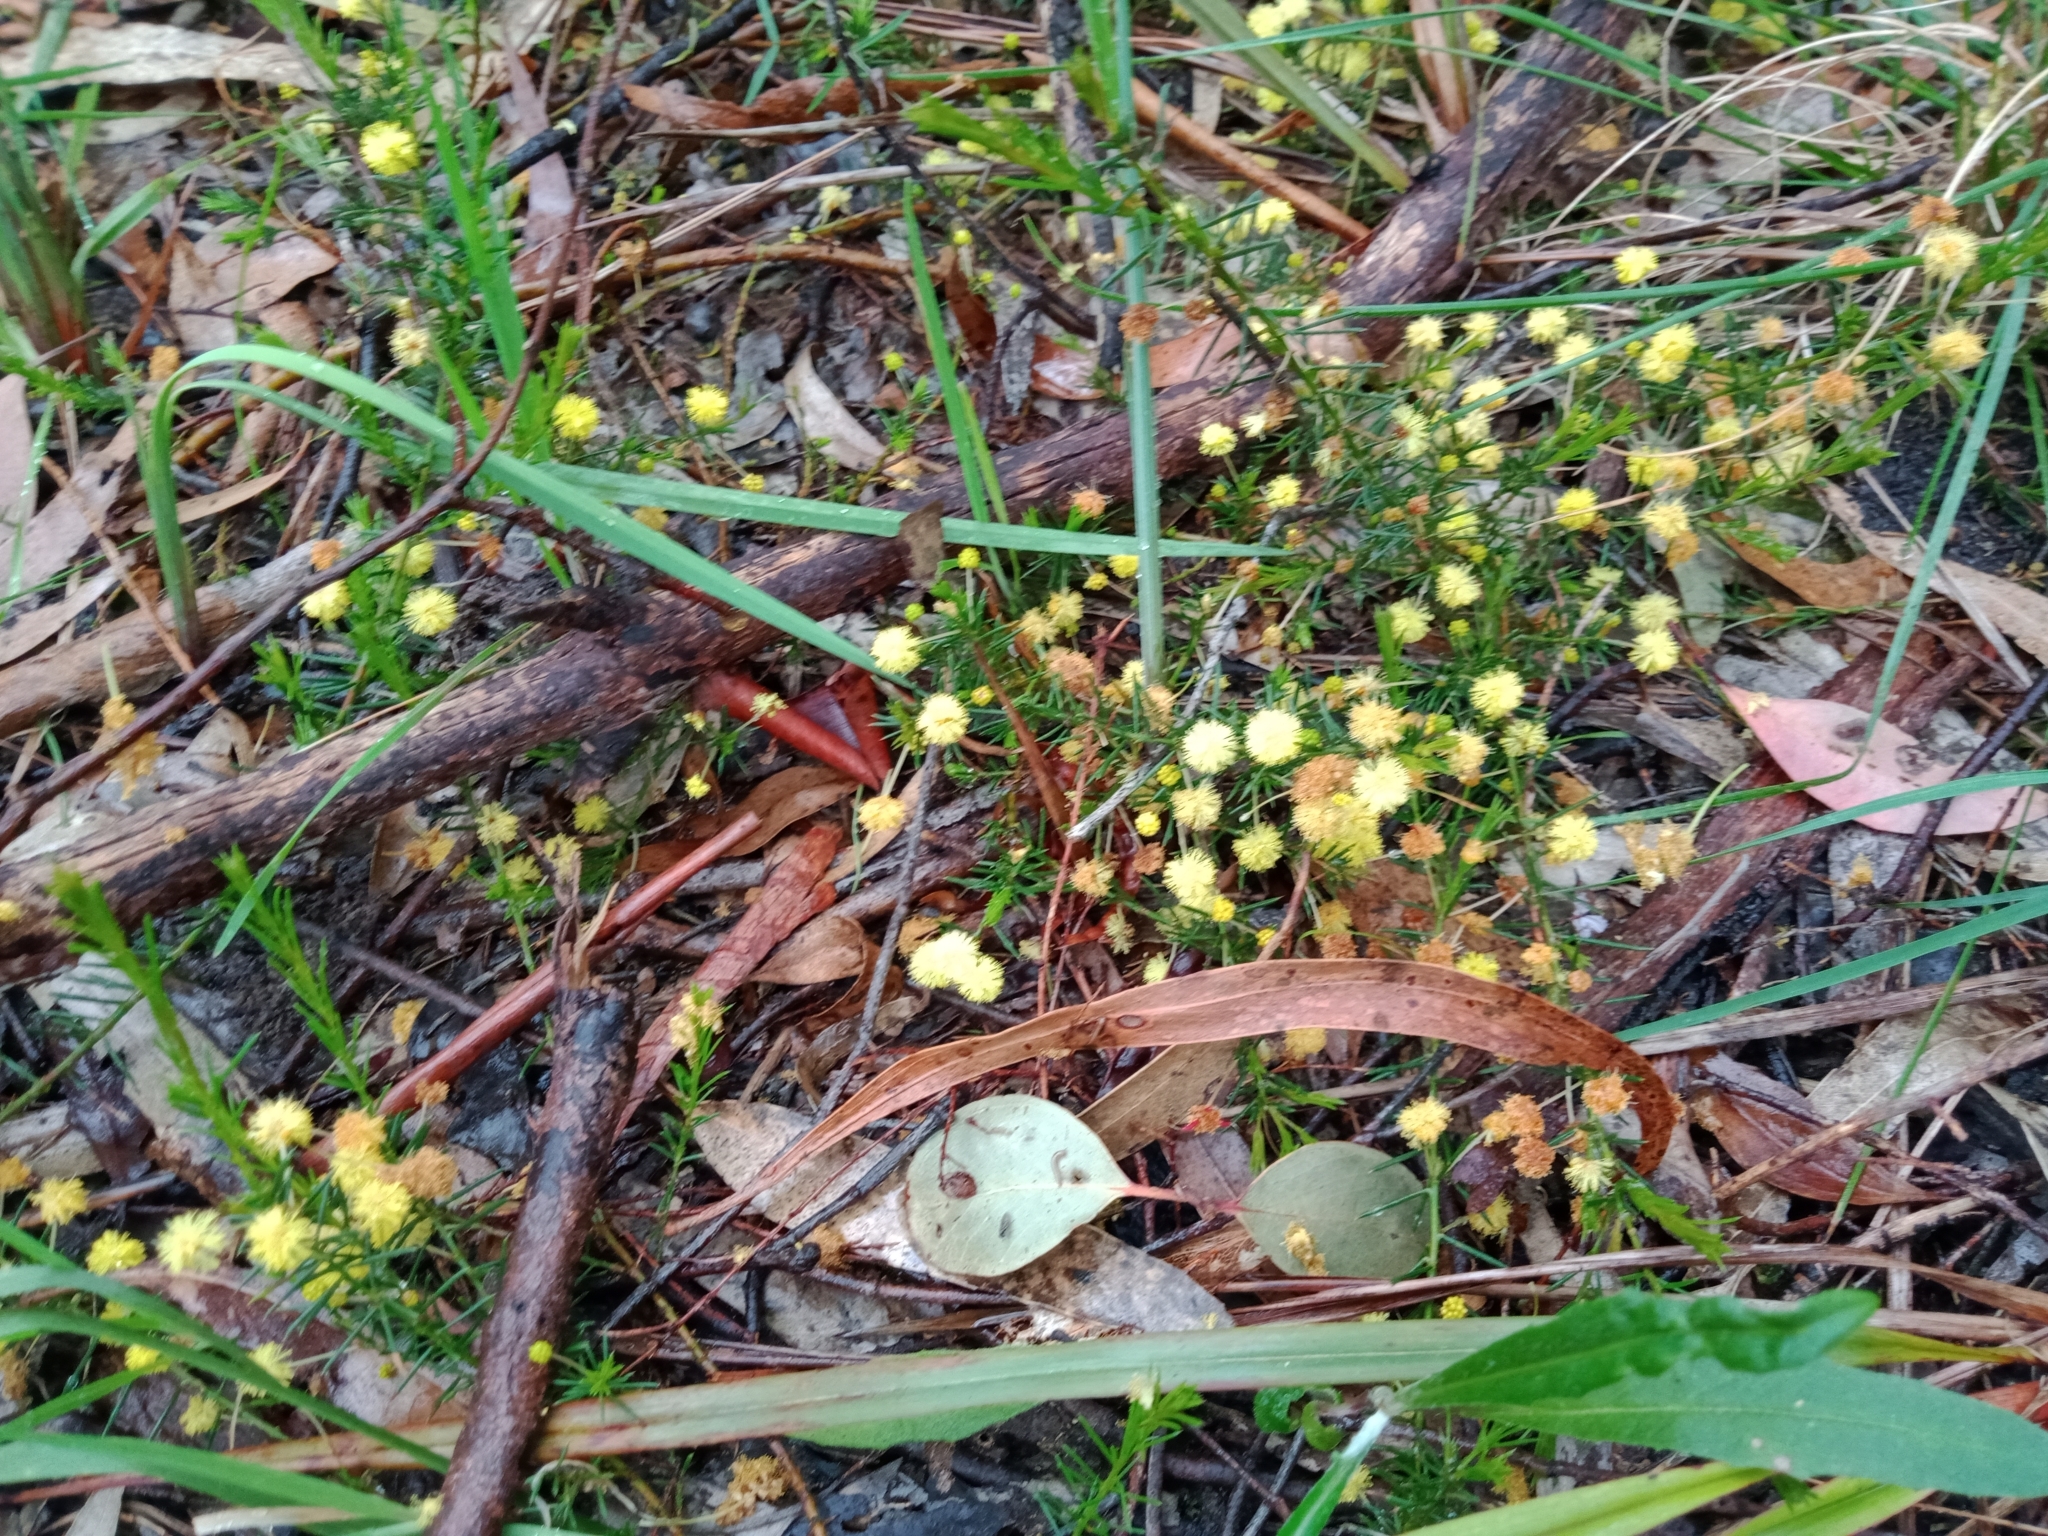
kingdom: Plantae
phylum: Tracheophyta
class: Magnoliopsida
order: Fabales
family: Fabaceae
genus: Acacia
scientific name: Acacia aculeatissima
